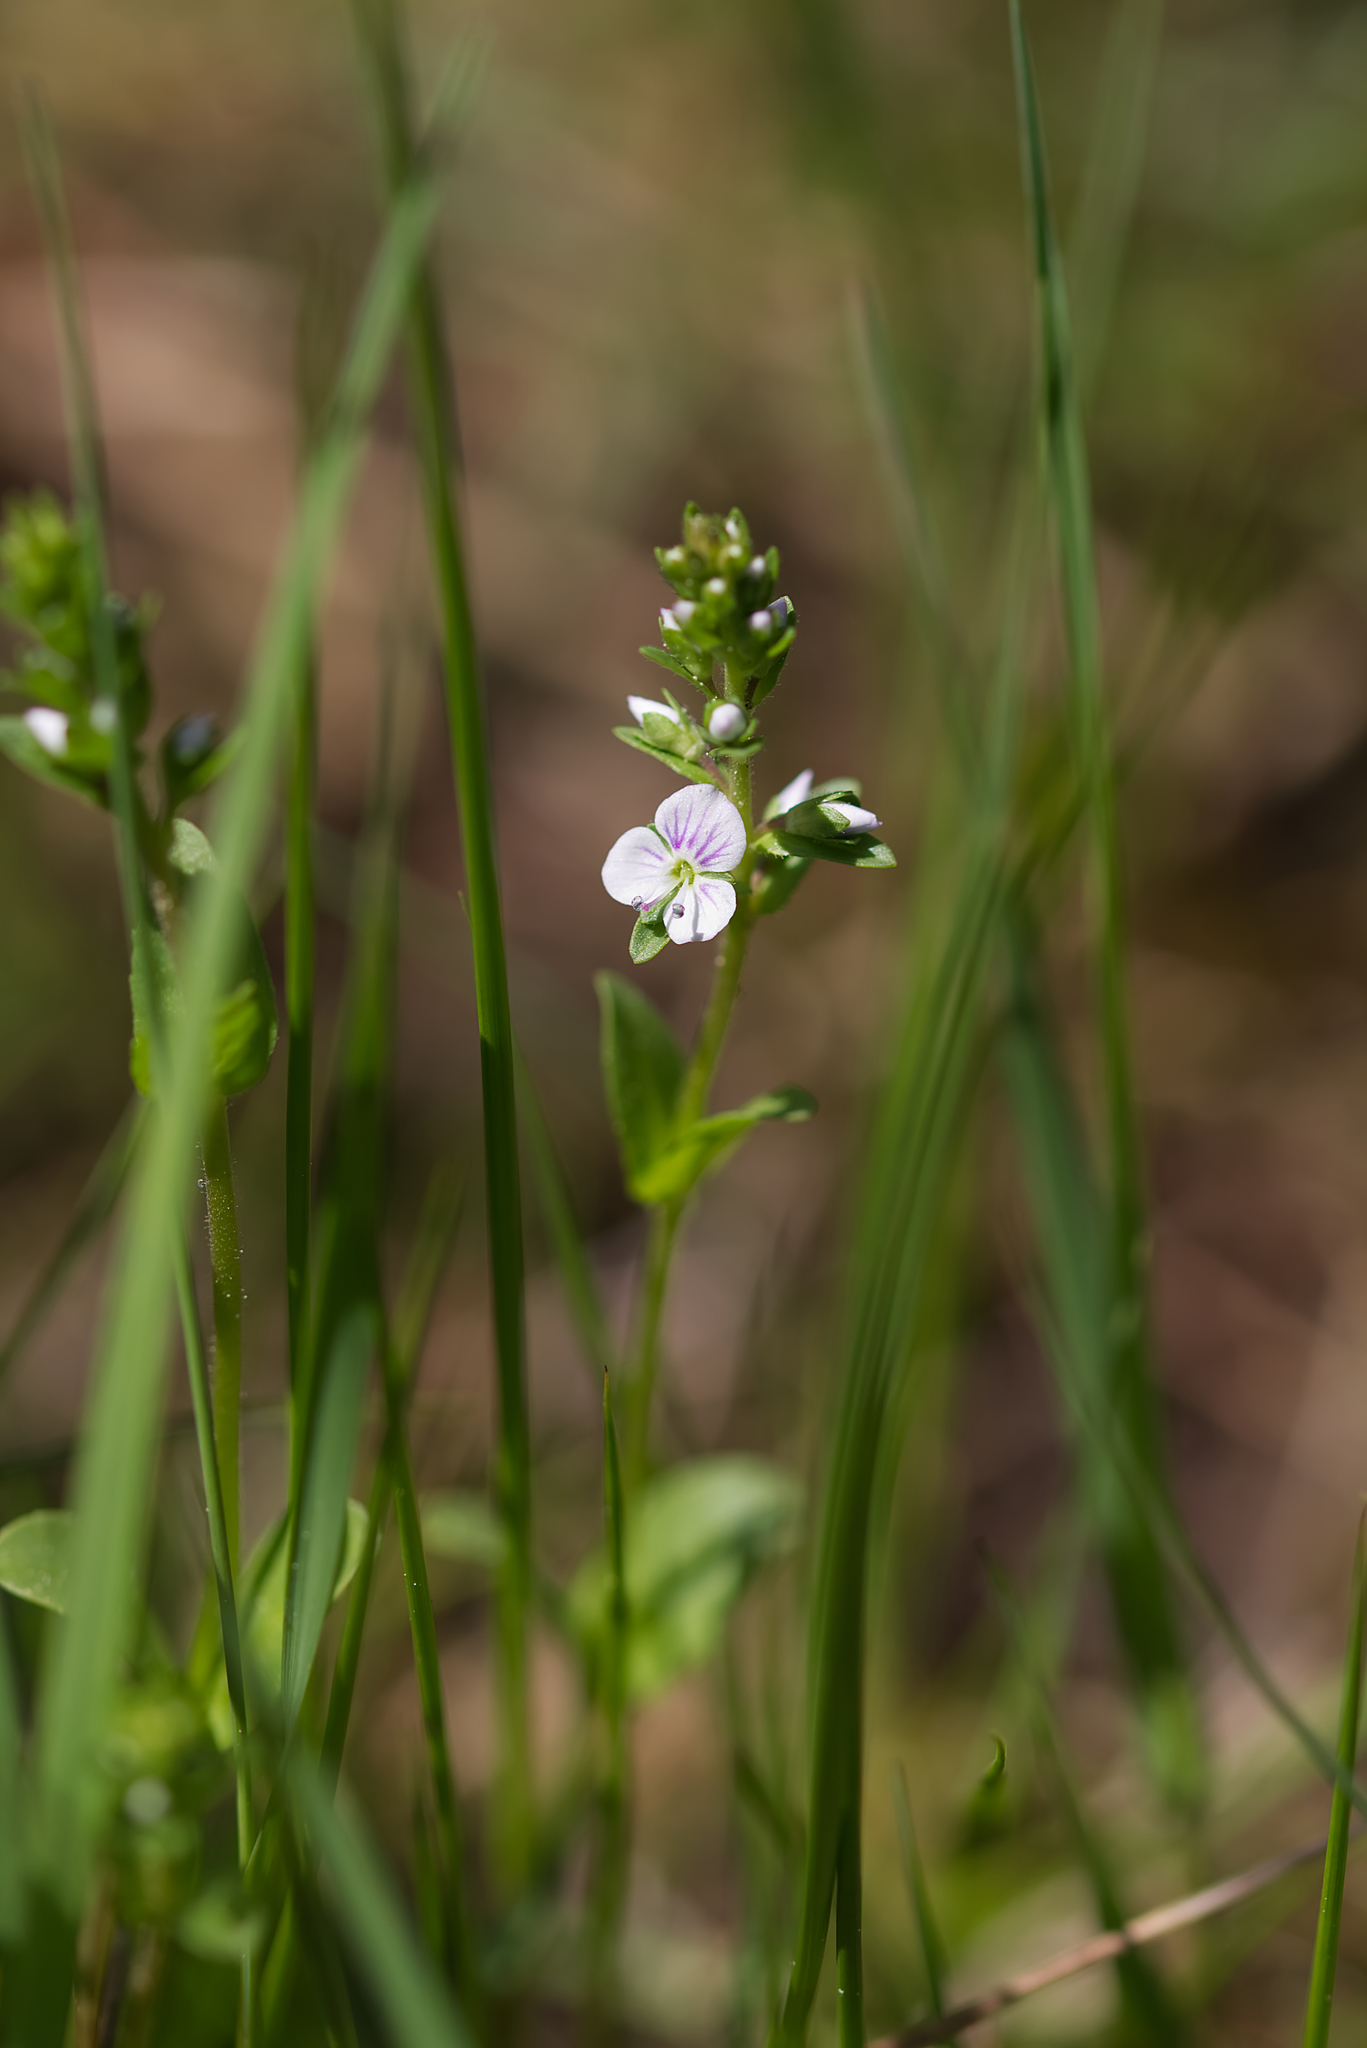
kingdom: Plantae
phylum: Tracheophyta
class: Magnoliopsida
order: Lamiales
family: Plantaginaceae
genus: Veronica
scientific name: Veronica serpyllifolia
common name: Thyme-leaved speedwell
